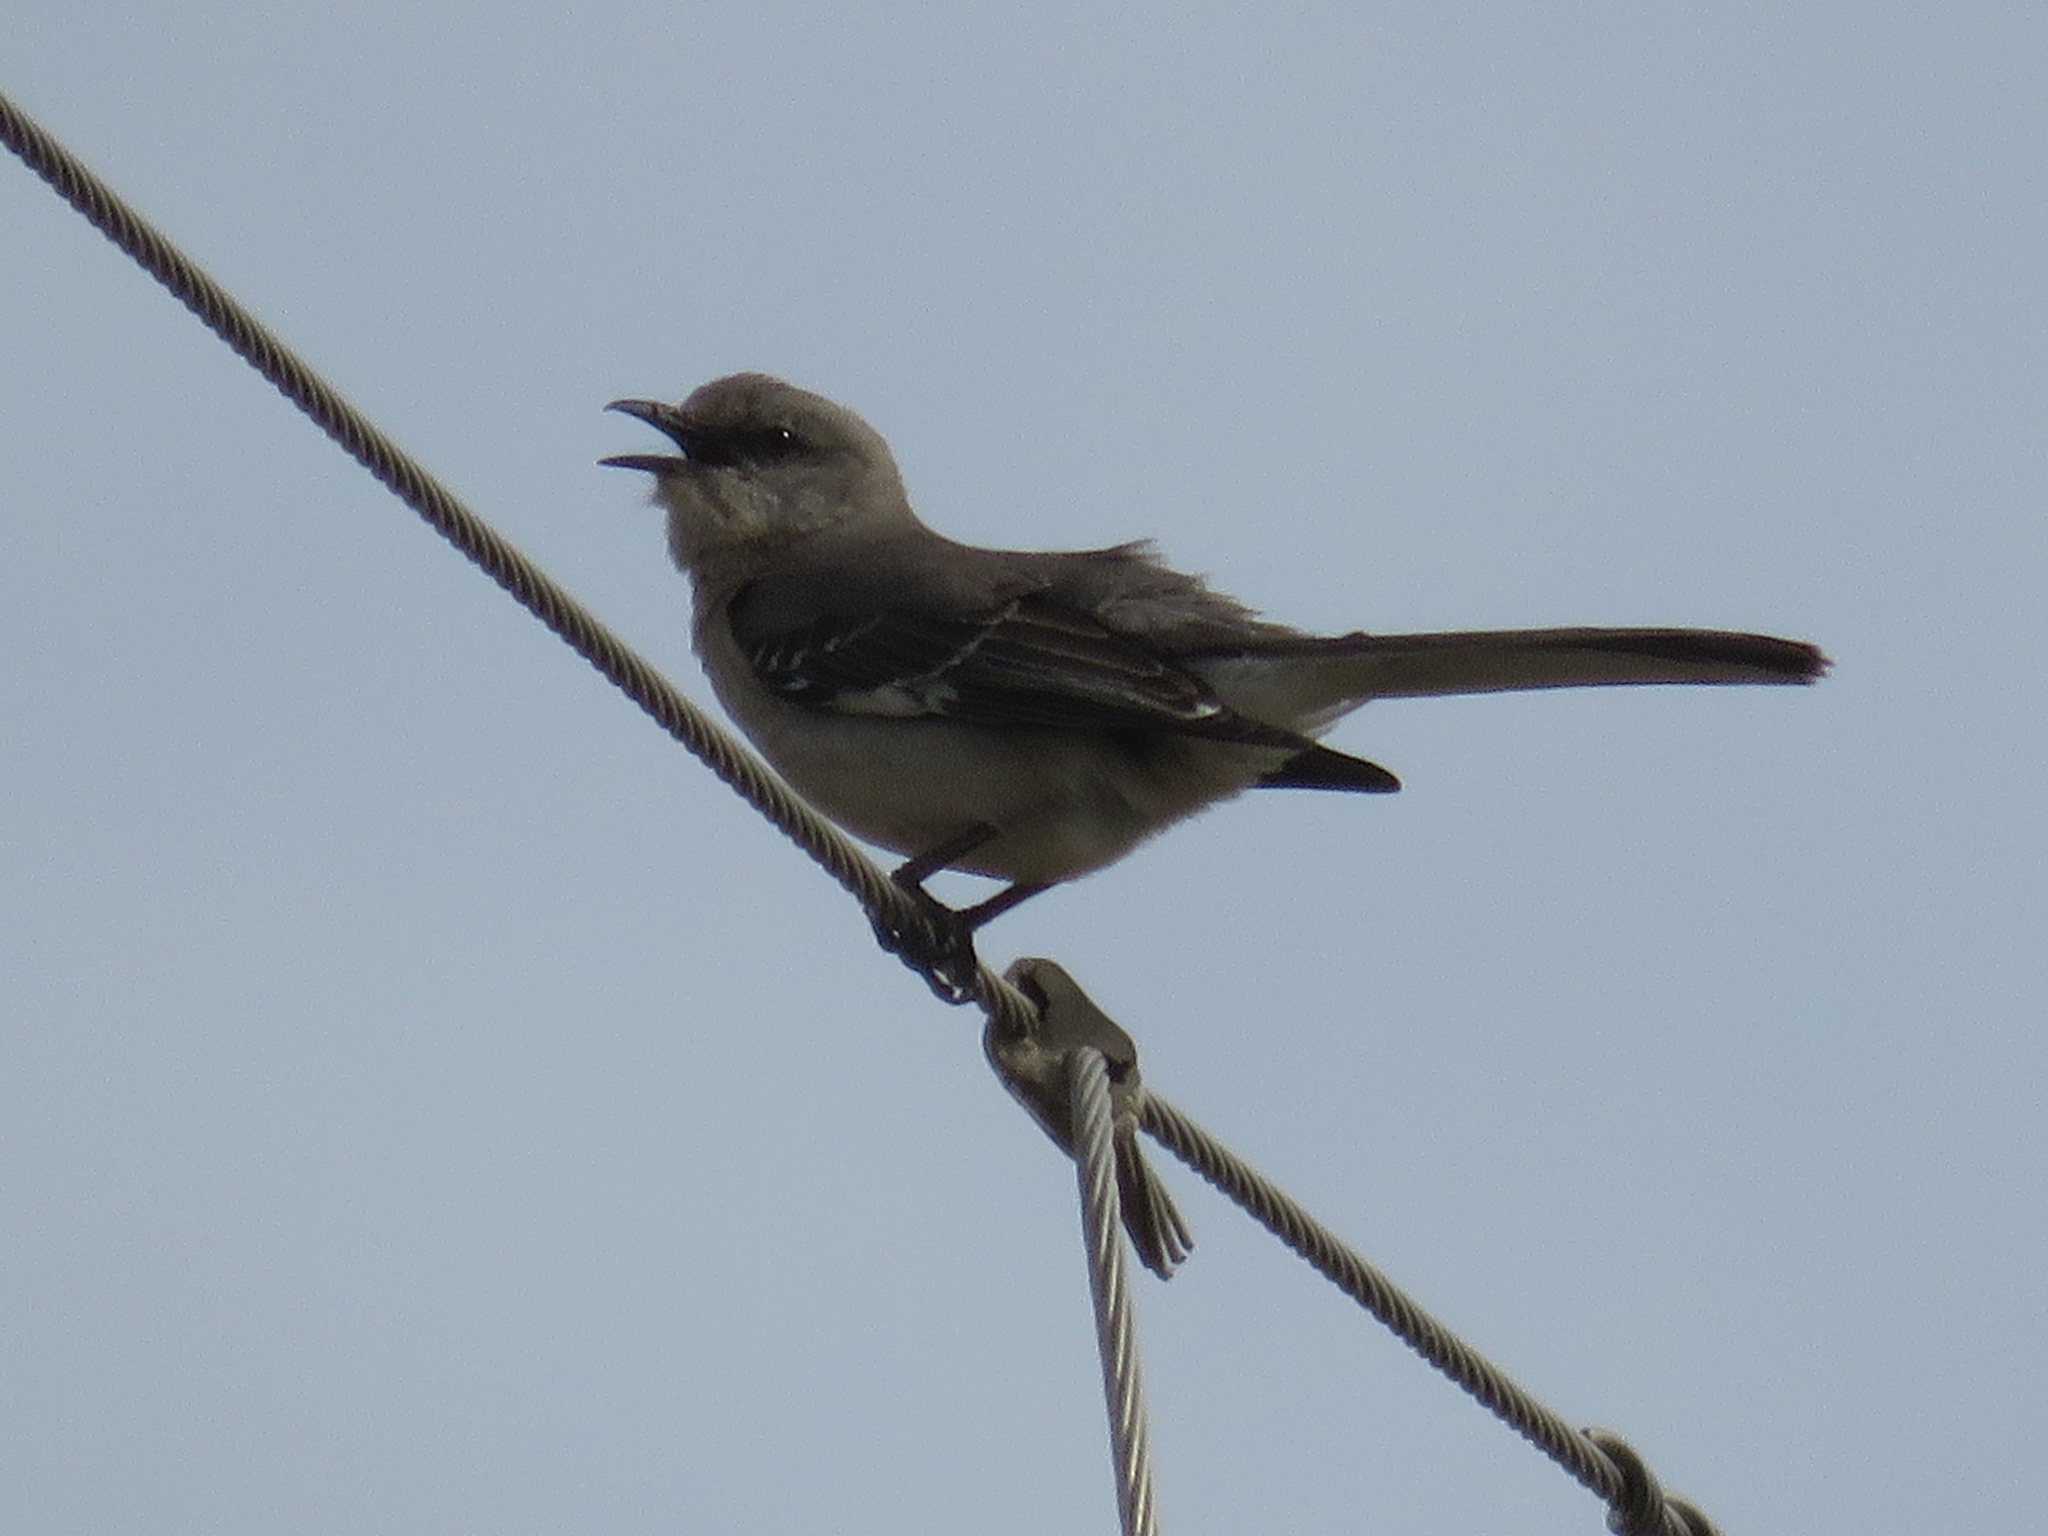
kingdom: Animalia
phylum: Chordata
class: Aves
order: Passeriformes
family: Mimidae
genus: Mimus
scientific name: Mimus polyglottos
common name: Northern mockingbird
